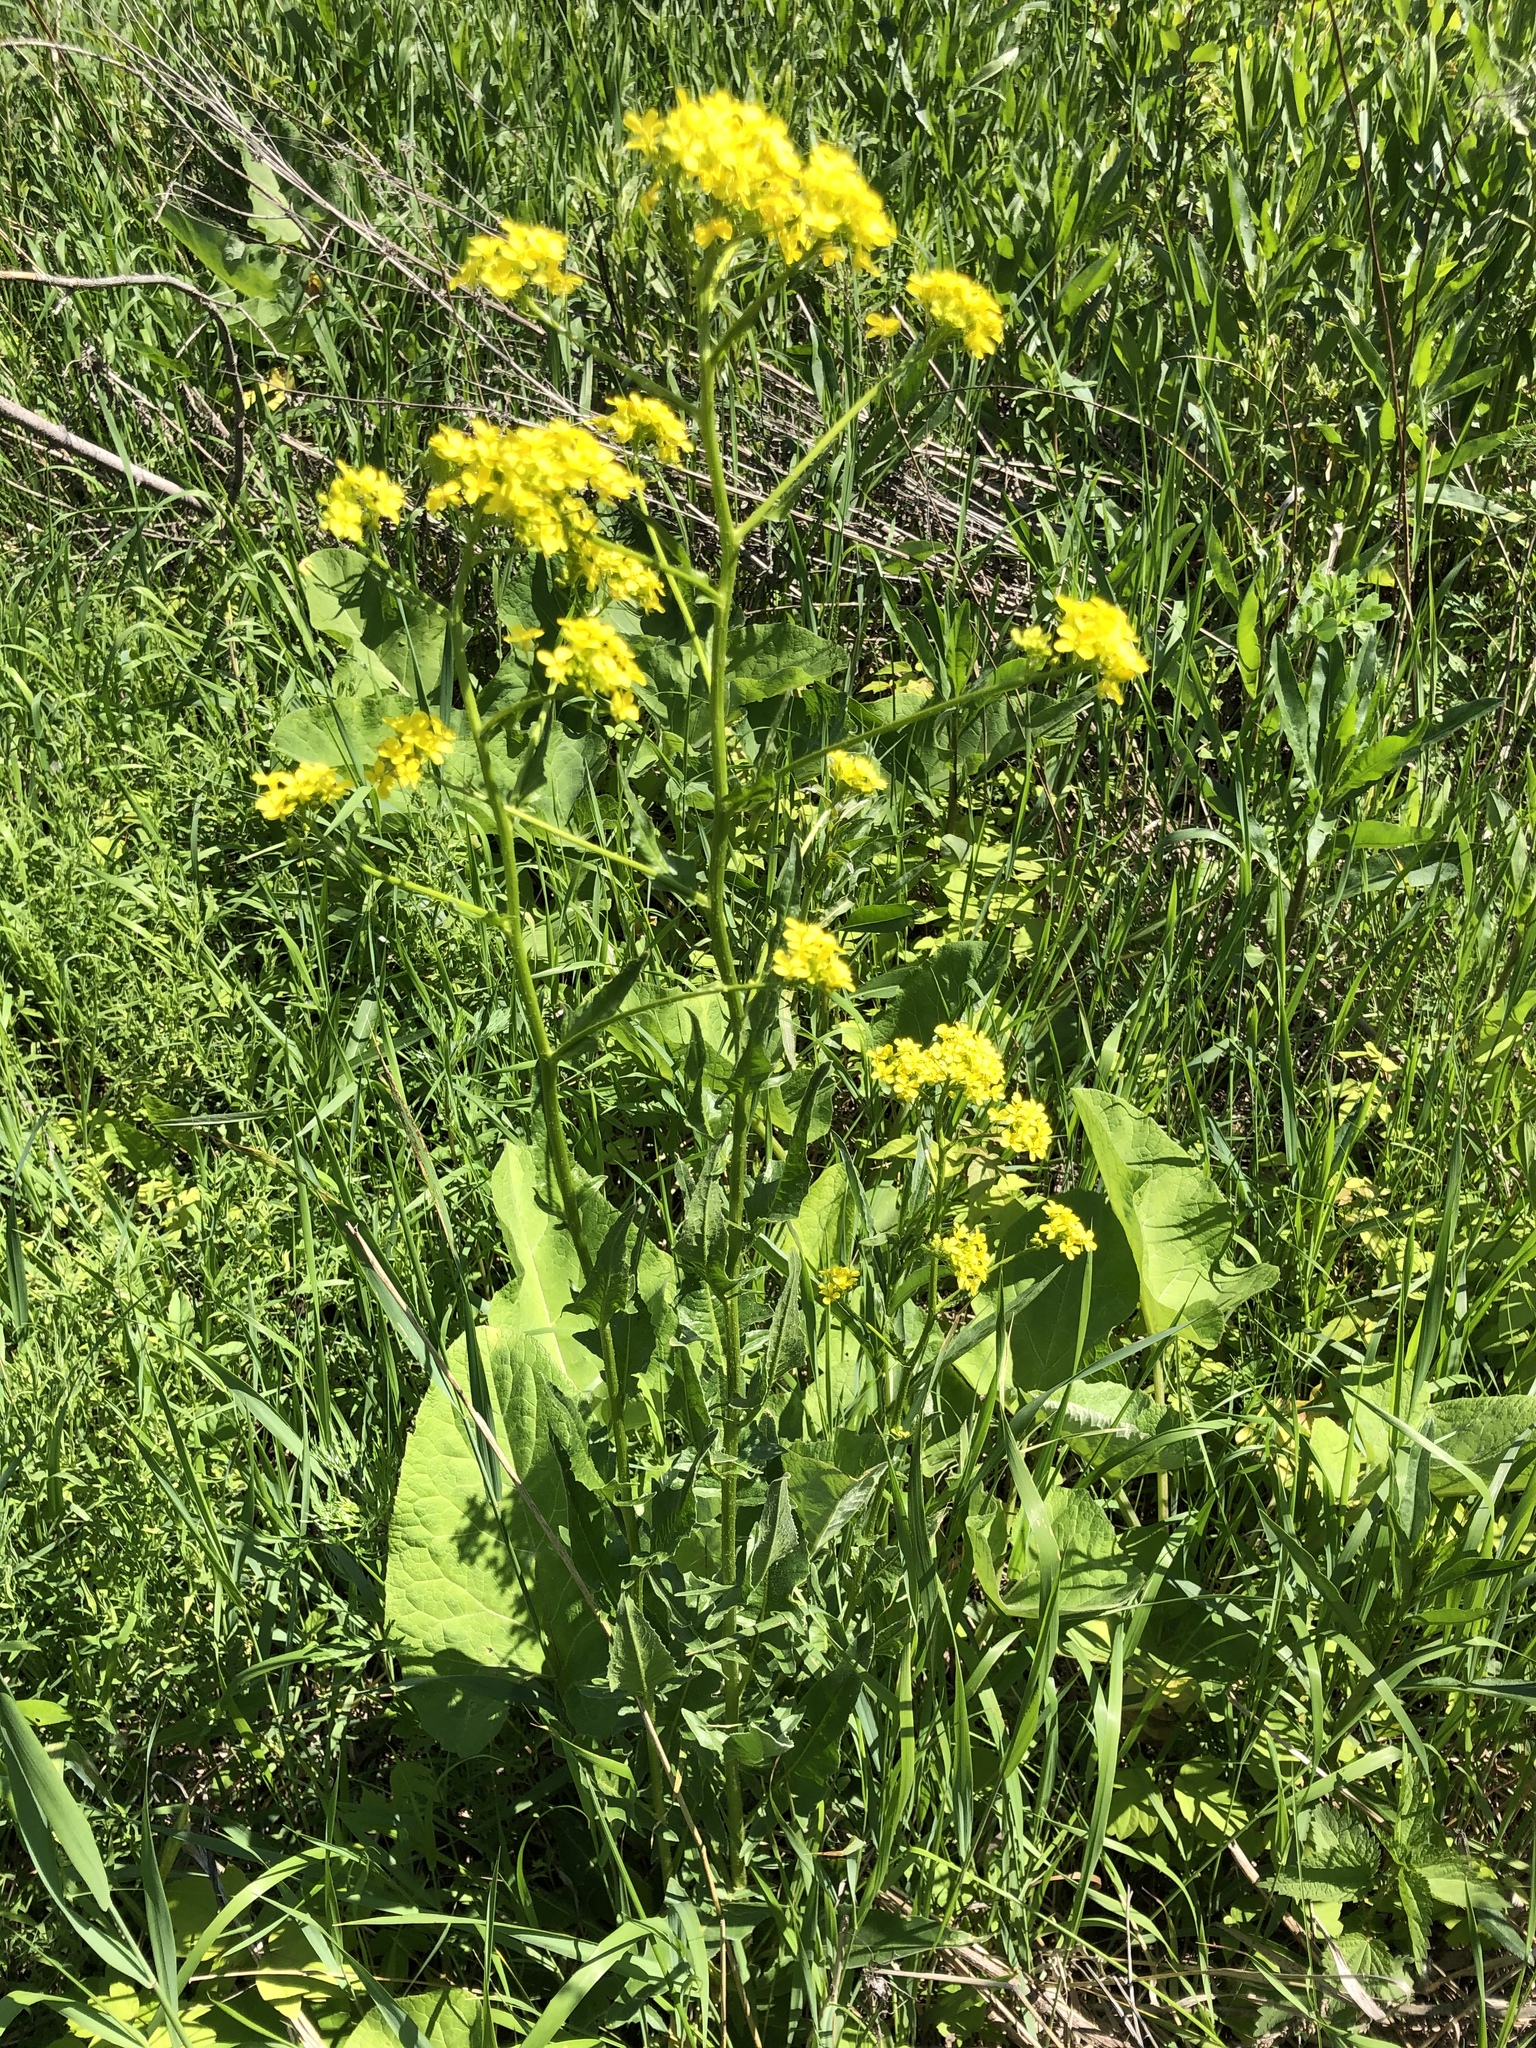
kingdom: Plantae
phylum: Tracheophyta
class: Magnoliopsida
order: Brassicales
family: Brassicaceae
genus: Bunias
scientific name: Bunias orientalis
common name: Warty-cabbage
